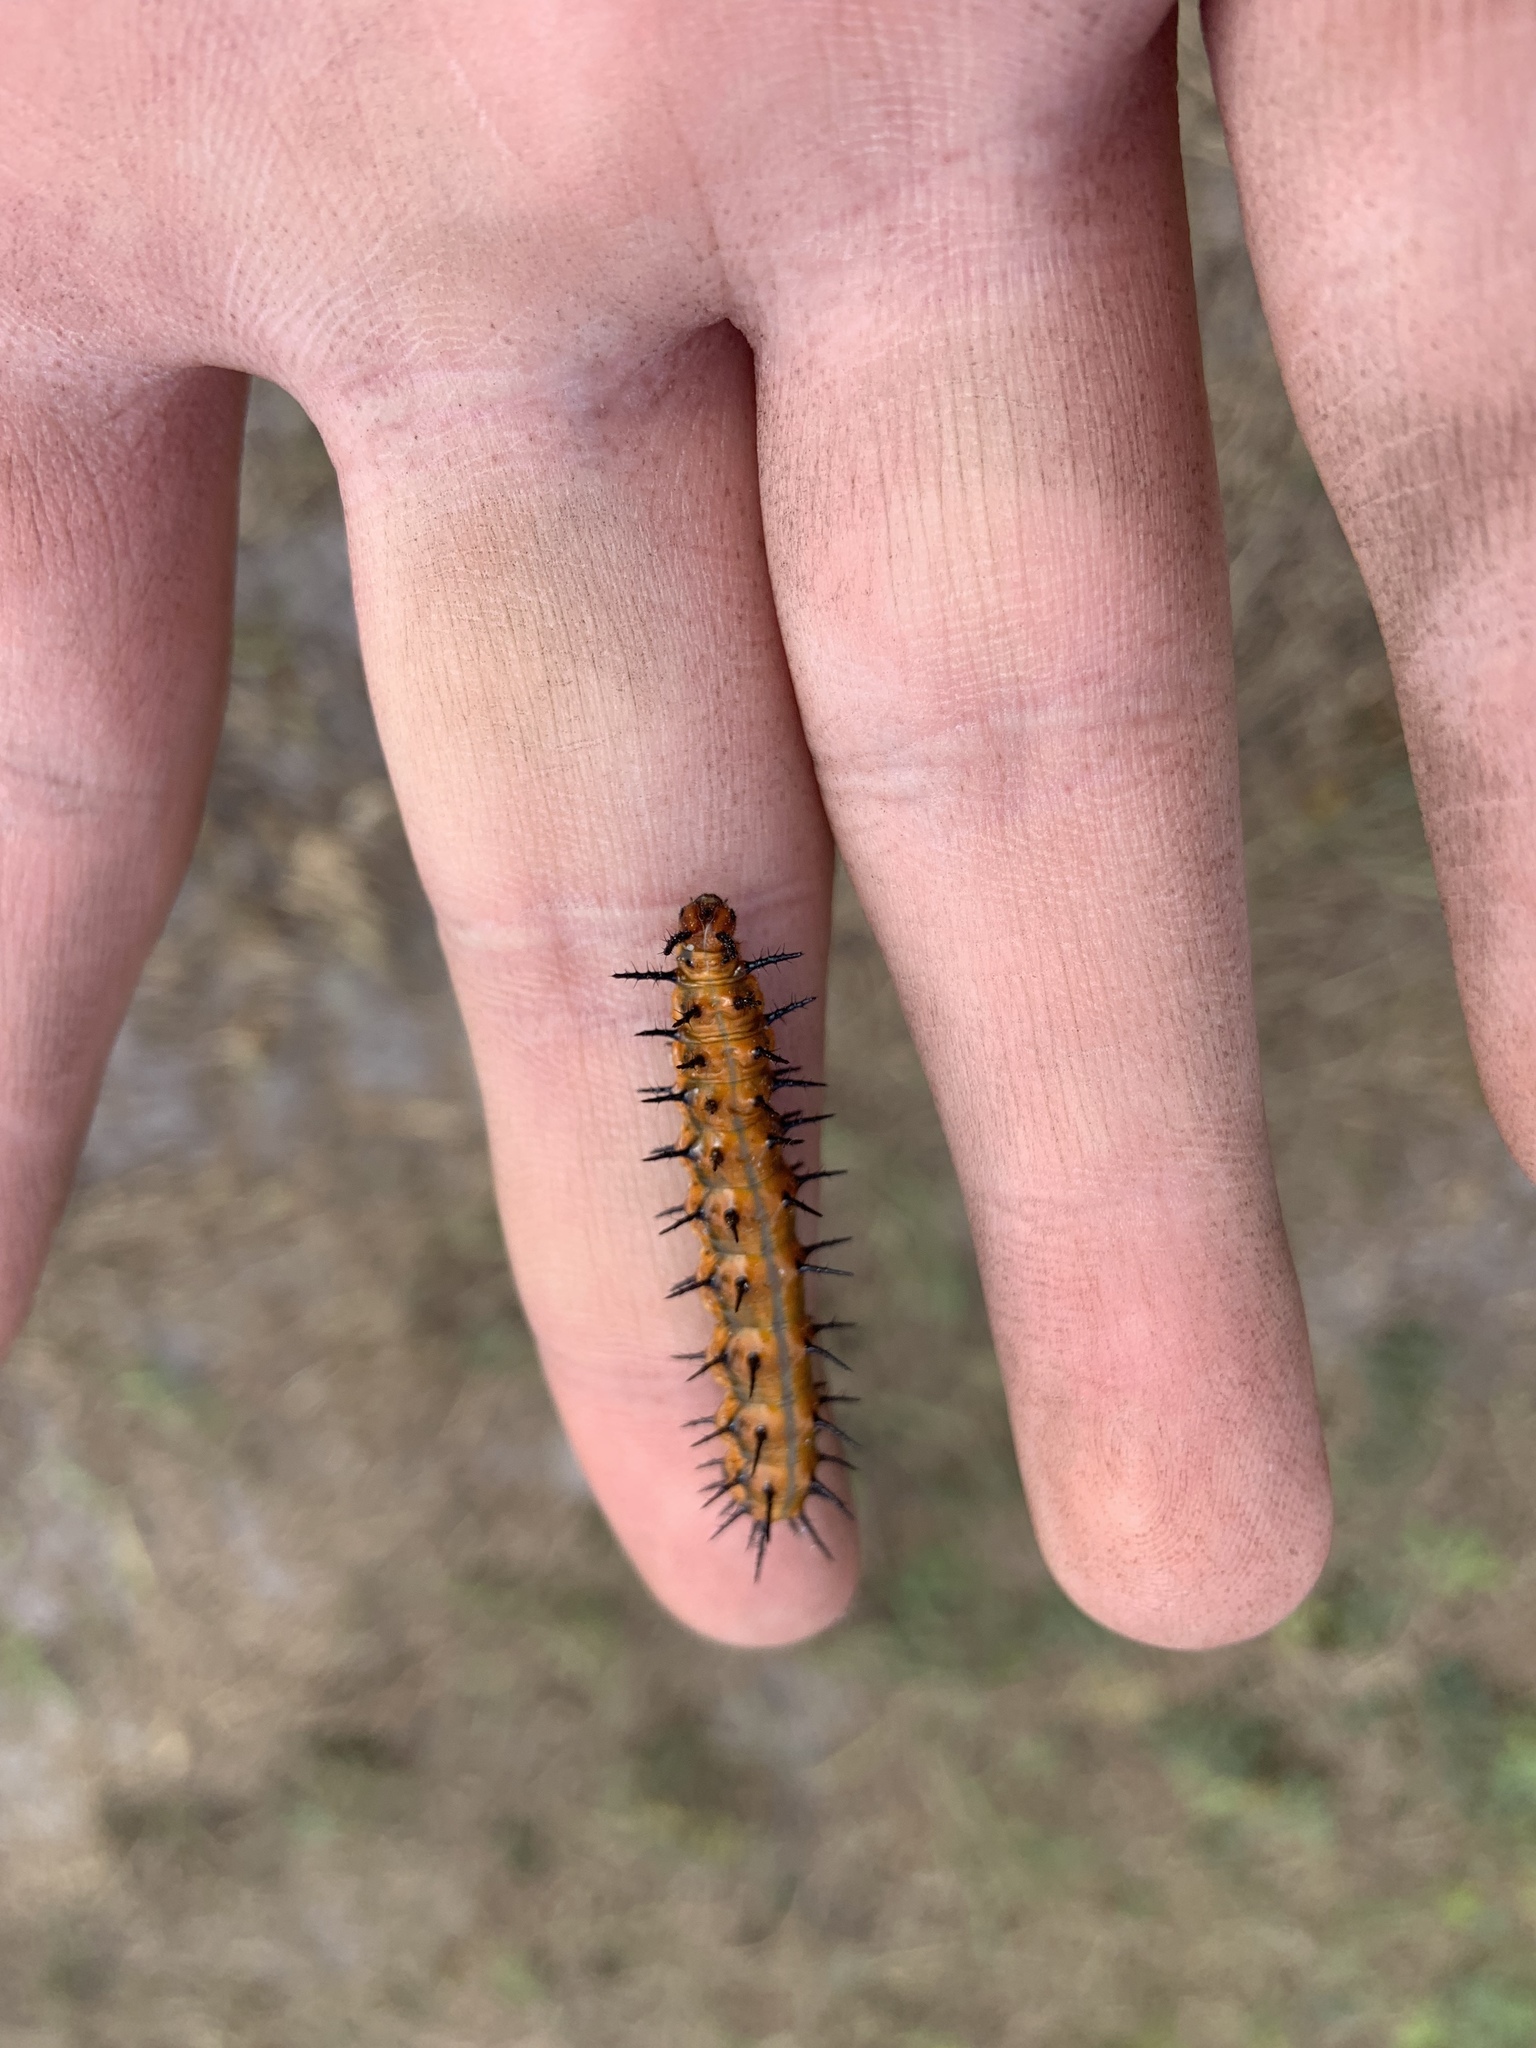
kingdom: Animalia
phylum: Arthropoda
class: Insecta
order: Lepidoptera
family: Nymphalidae
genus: Dione
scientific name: Dione vanillae
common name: Gulf fritillary
